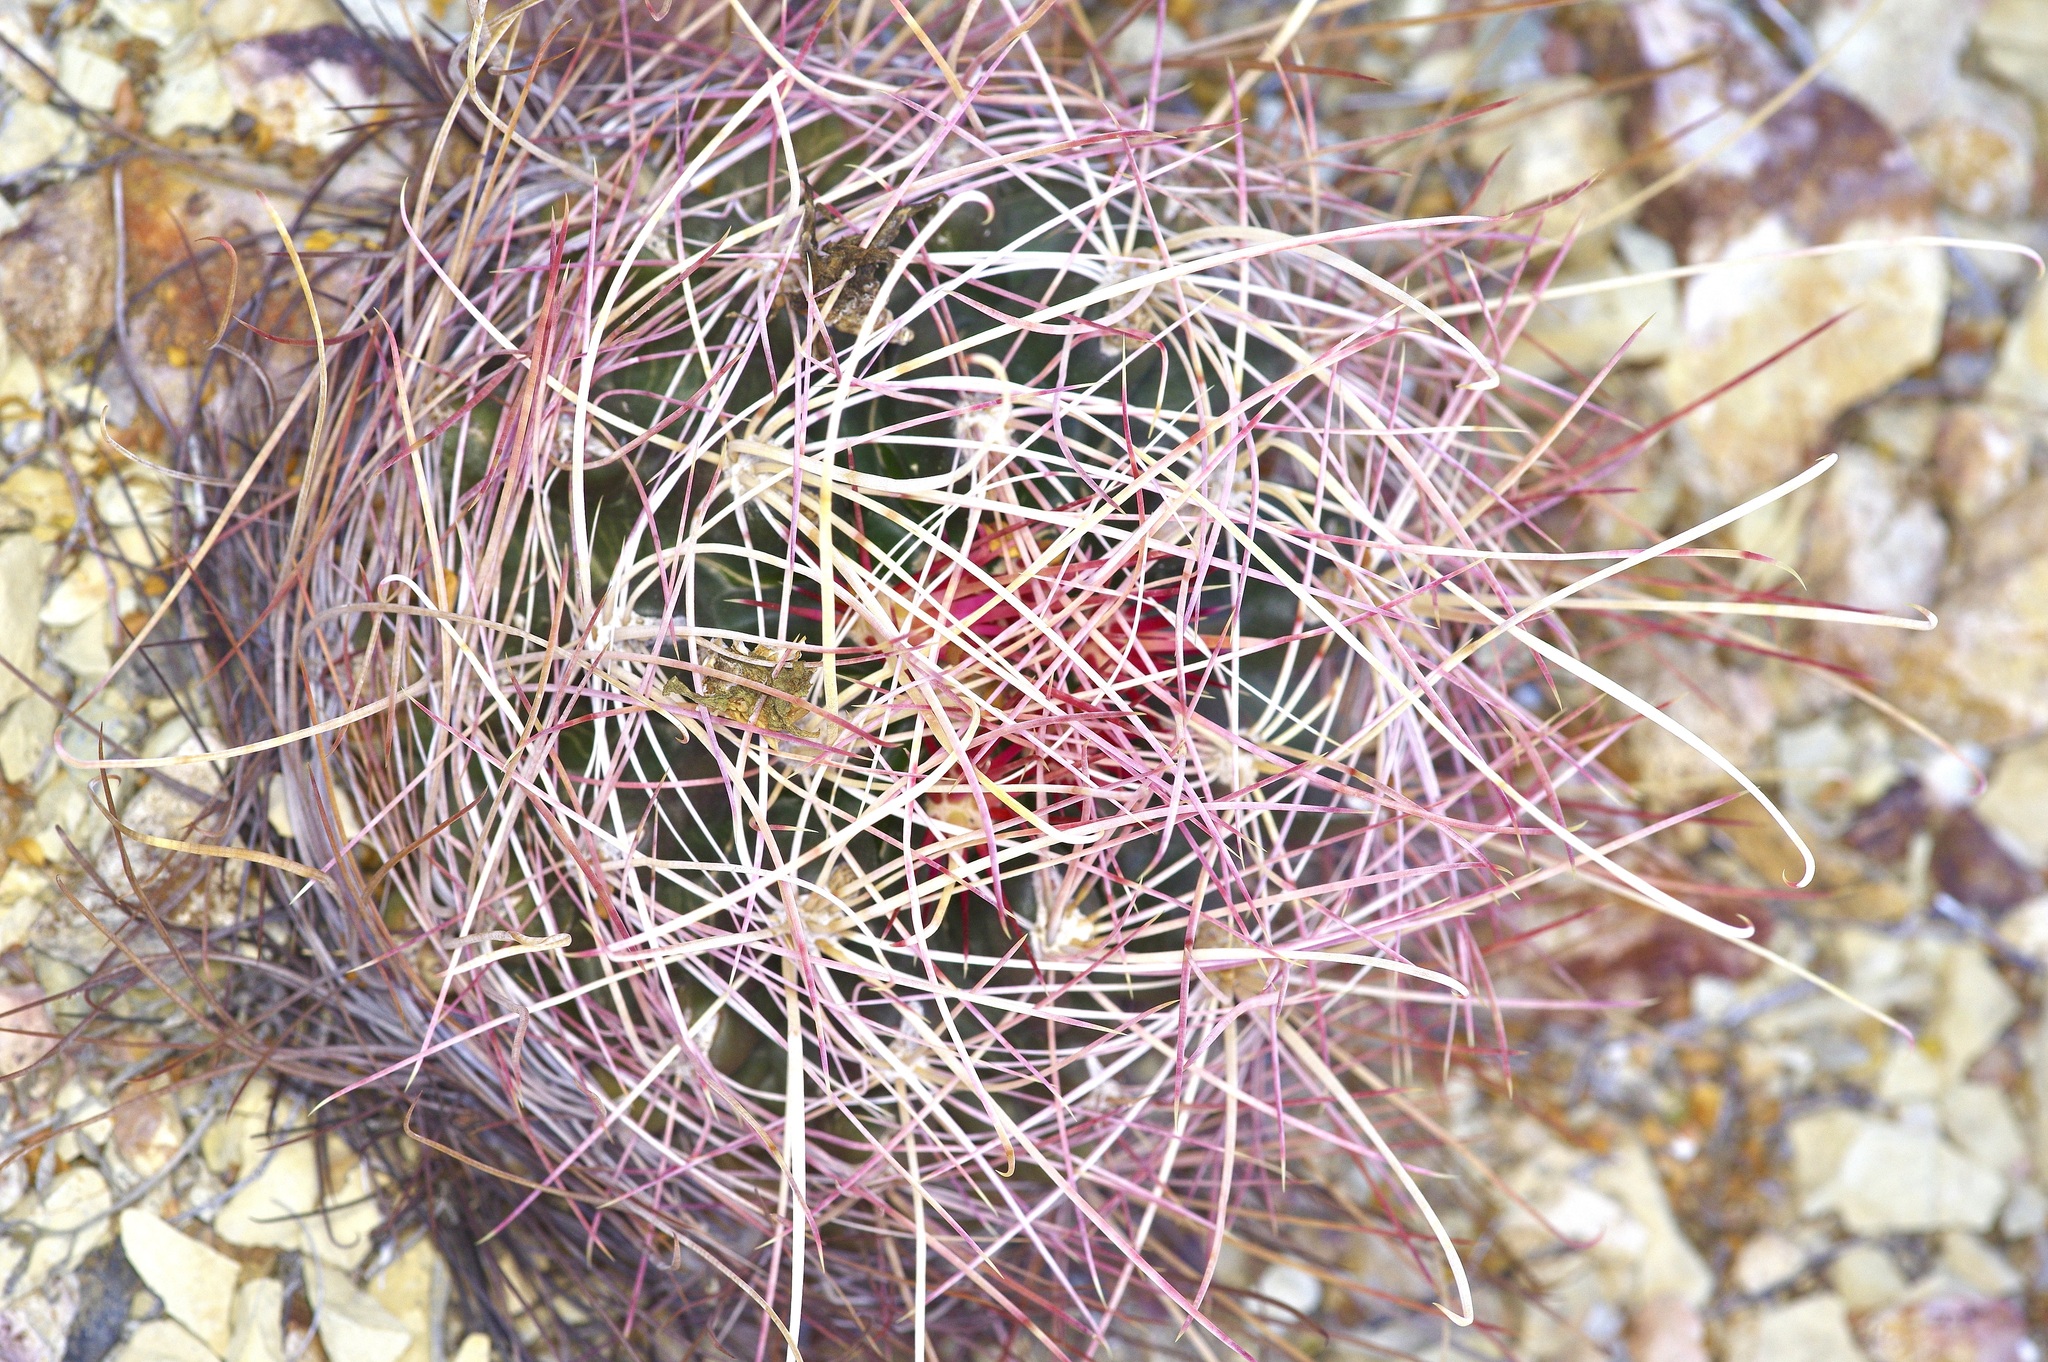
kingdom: Plantae
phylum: Tracheophyta
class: Magnoliopsida
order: Caryophyllales
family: Cactaceae
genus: Bisnaga
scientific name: Bisnaga hamatacantha
